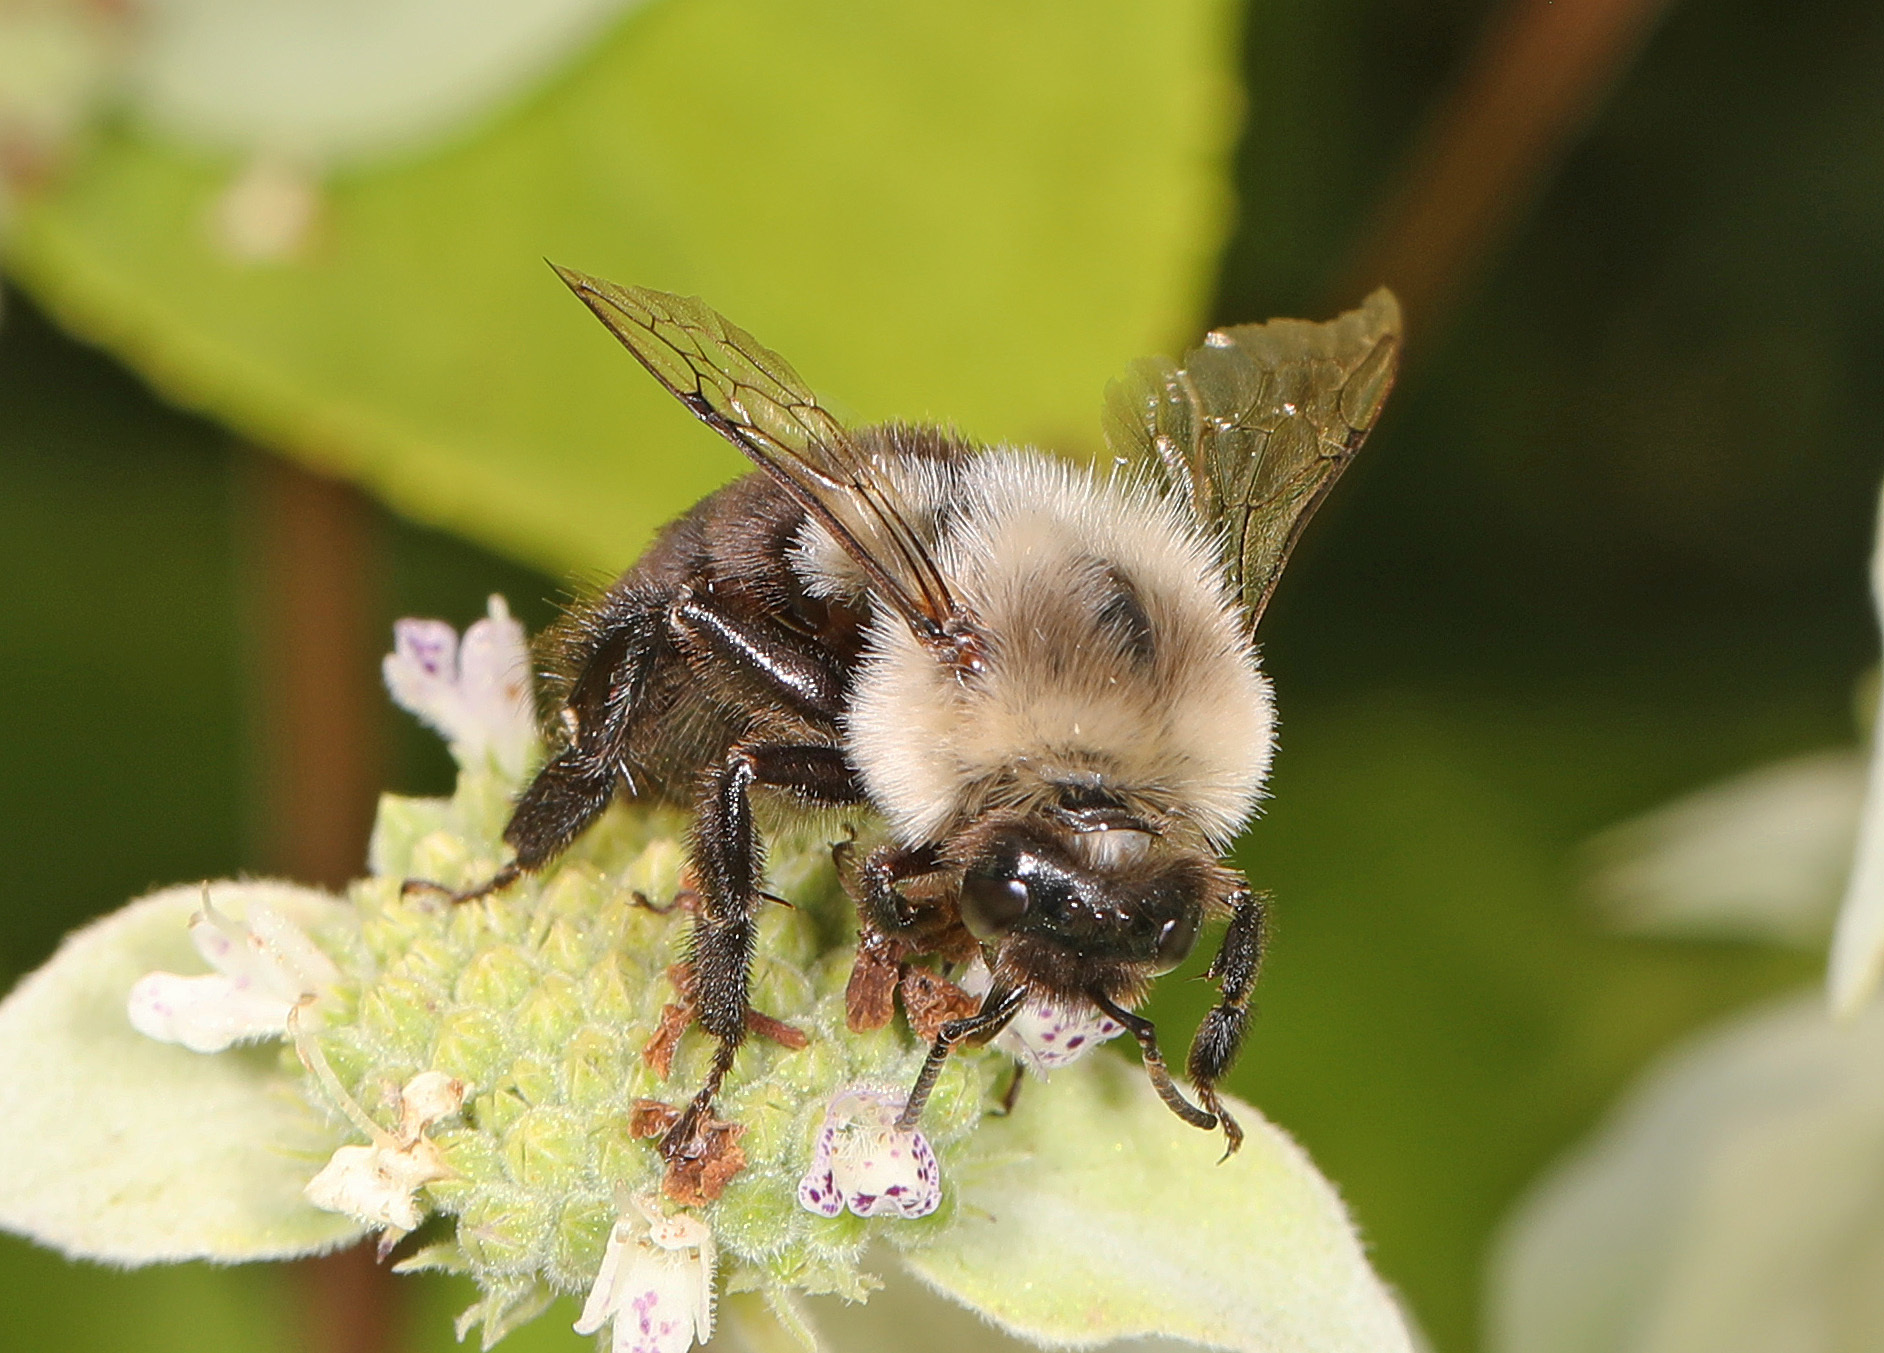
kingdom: Animalia
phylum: Arthropoda
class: Insecta
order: Hymenoptera
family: Apidae
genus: Bombus
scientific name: Bombus impatiens
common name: Common eastern bumble bee
